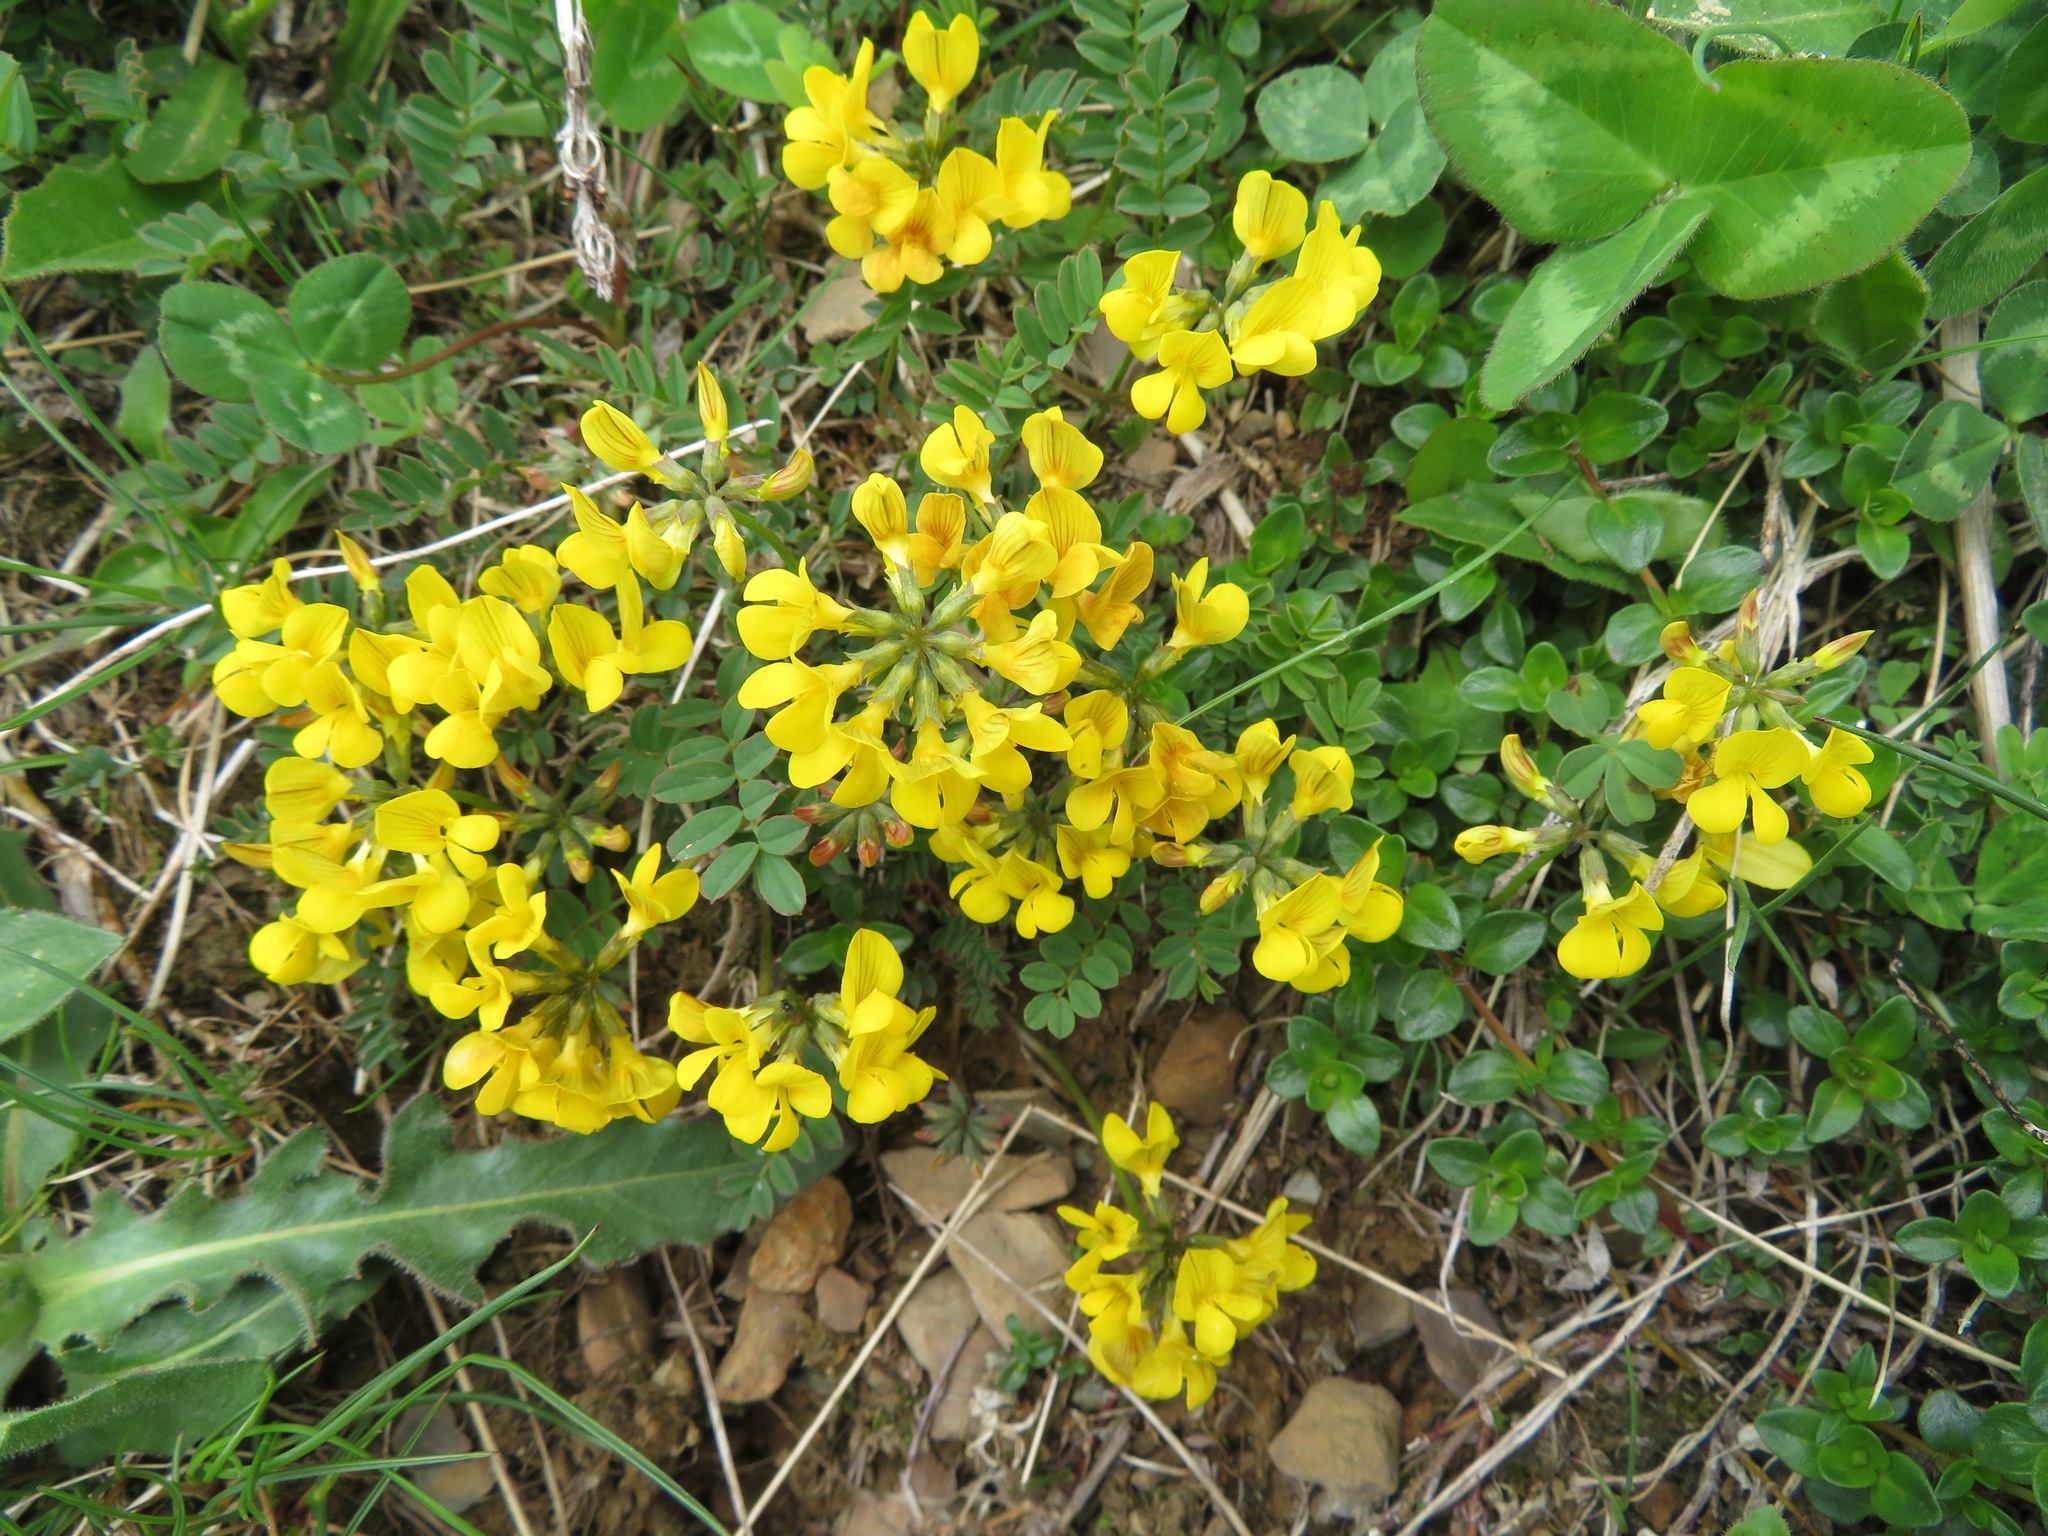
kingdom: Plantae
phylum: Tracheophyta
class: Magnoliopsida
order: Fabales
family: Fabaceae
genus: Hippocrepis
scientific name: Hippocrepis comosa
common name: Horseshoe vetch
